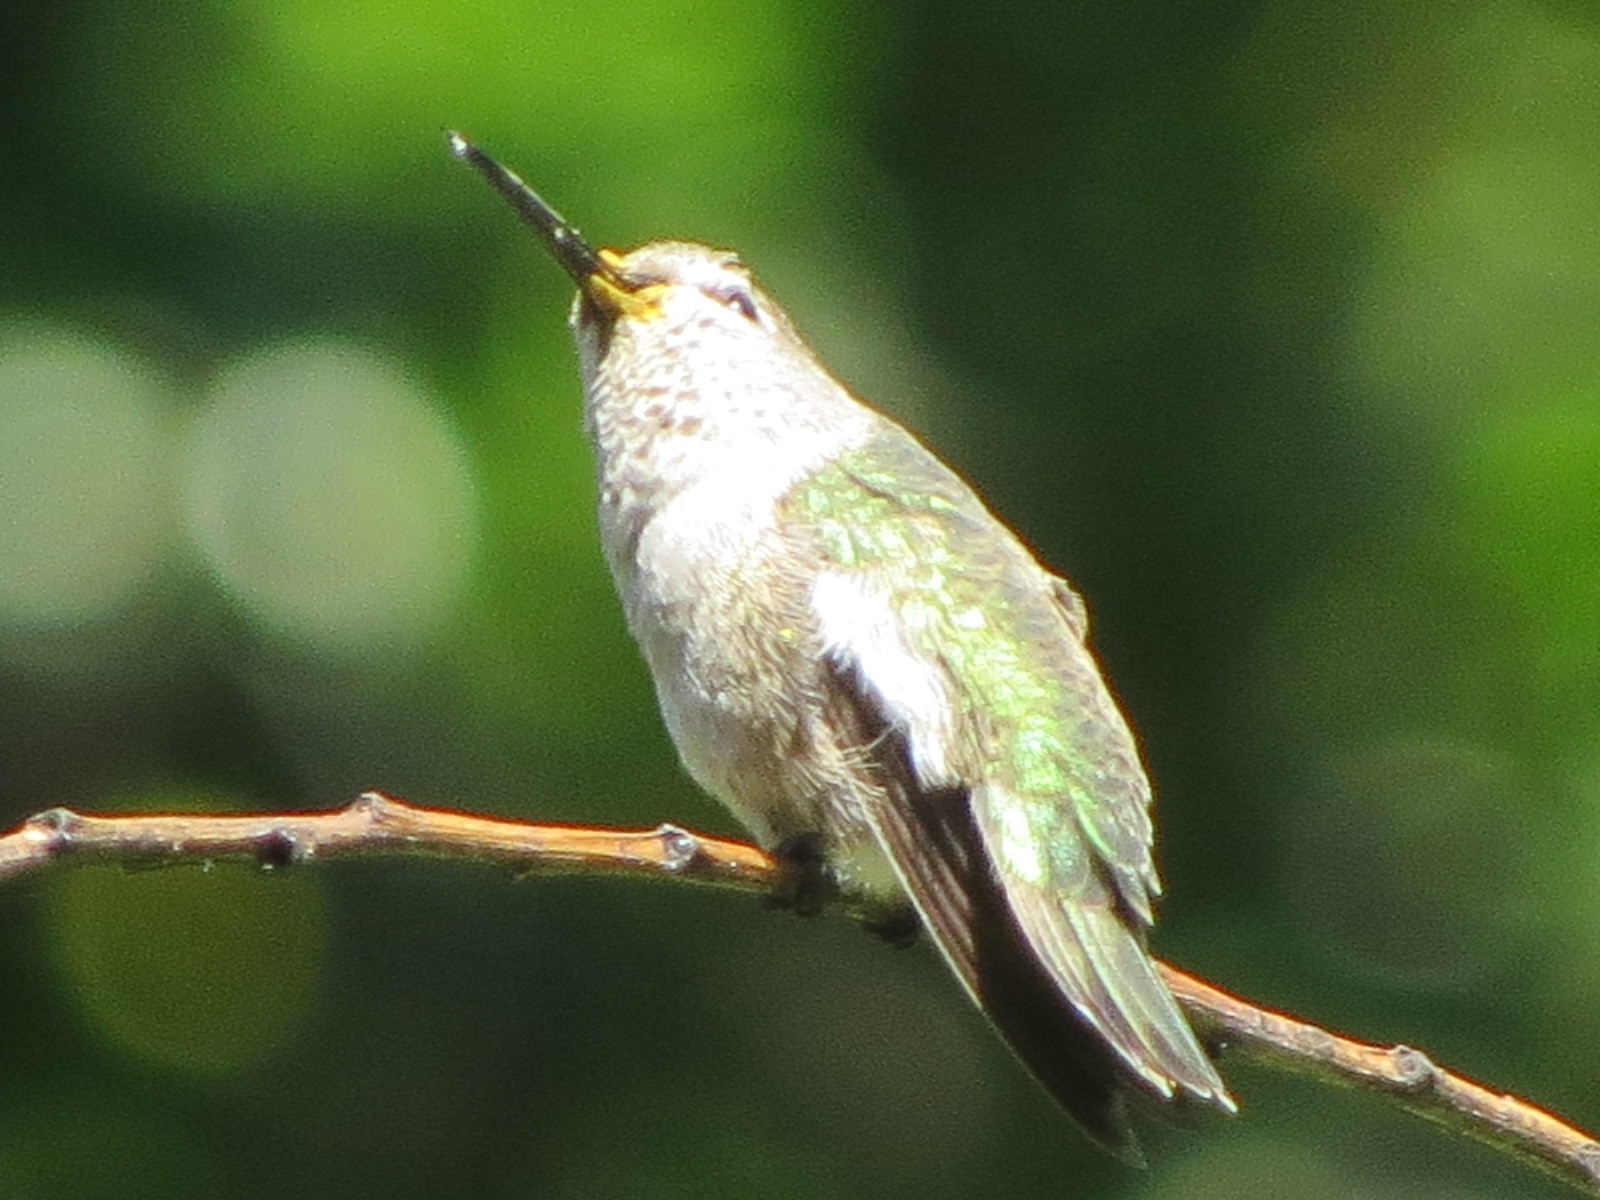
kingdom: Animalia
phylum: Chordata
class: Aves
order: Apodiformes
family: Trochilidae
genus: Calypte
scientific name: Calypte anna
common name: Anna's hummingbird
